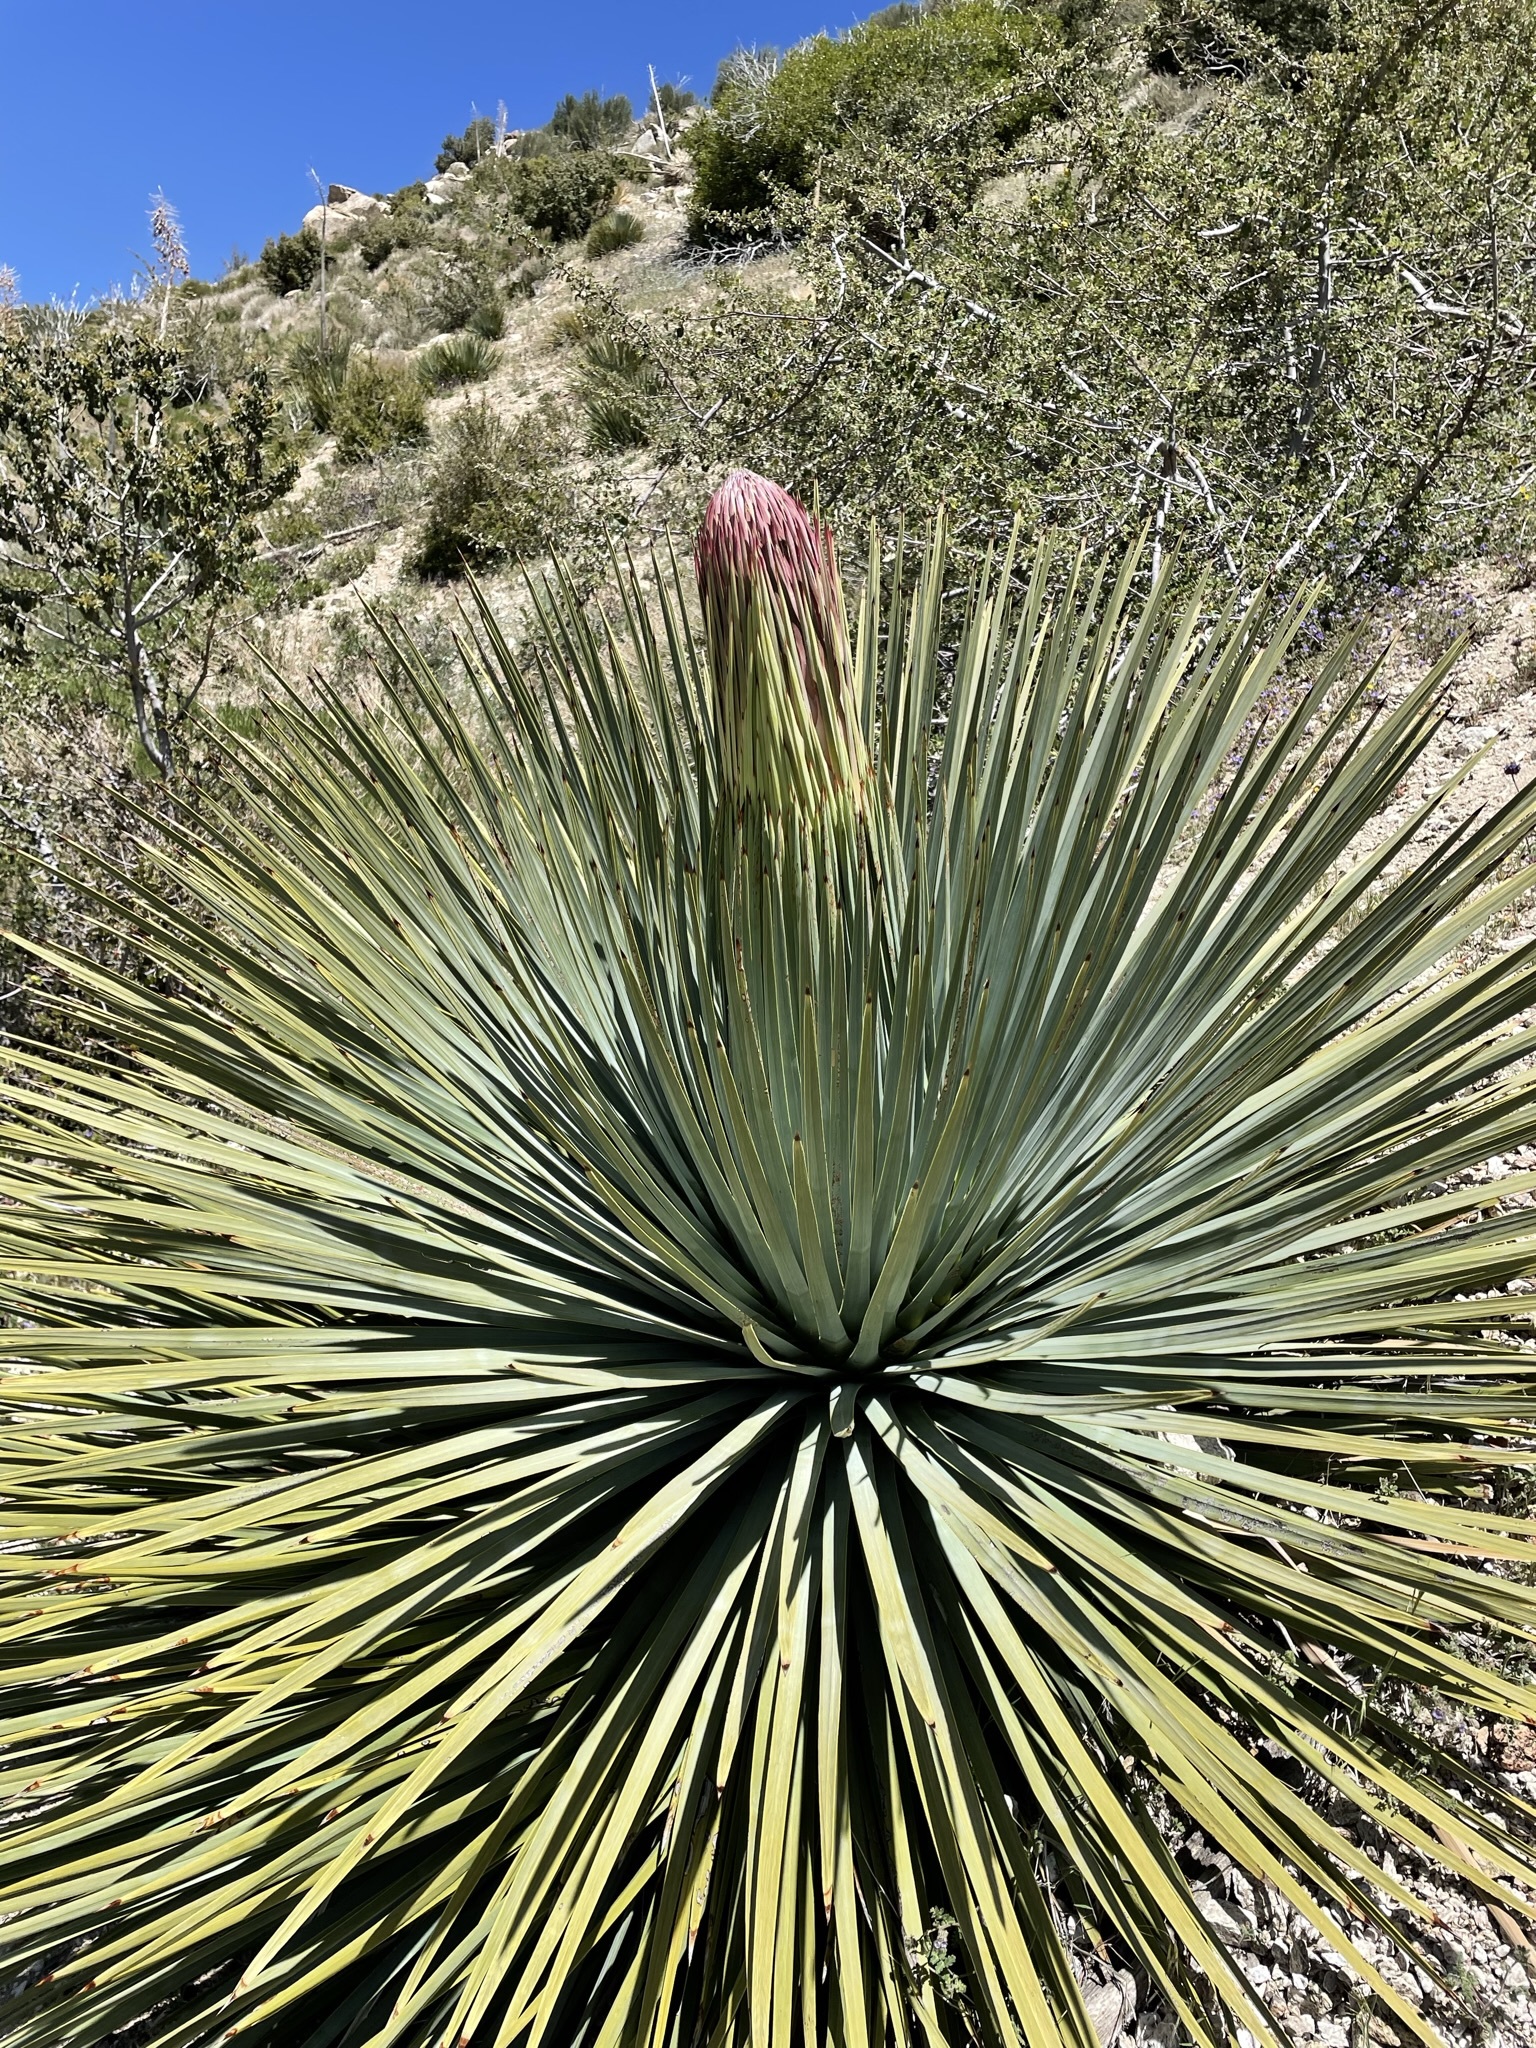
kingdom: Plantae
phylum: Tracheophyta
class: Liliopsida
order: Asparagales
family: Asparagaceae
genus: Hesperoyucca
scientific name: Hesperoyucca whipplei
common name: Our lord's-candle
